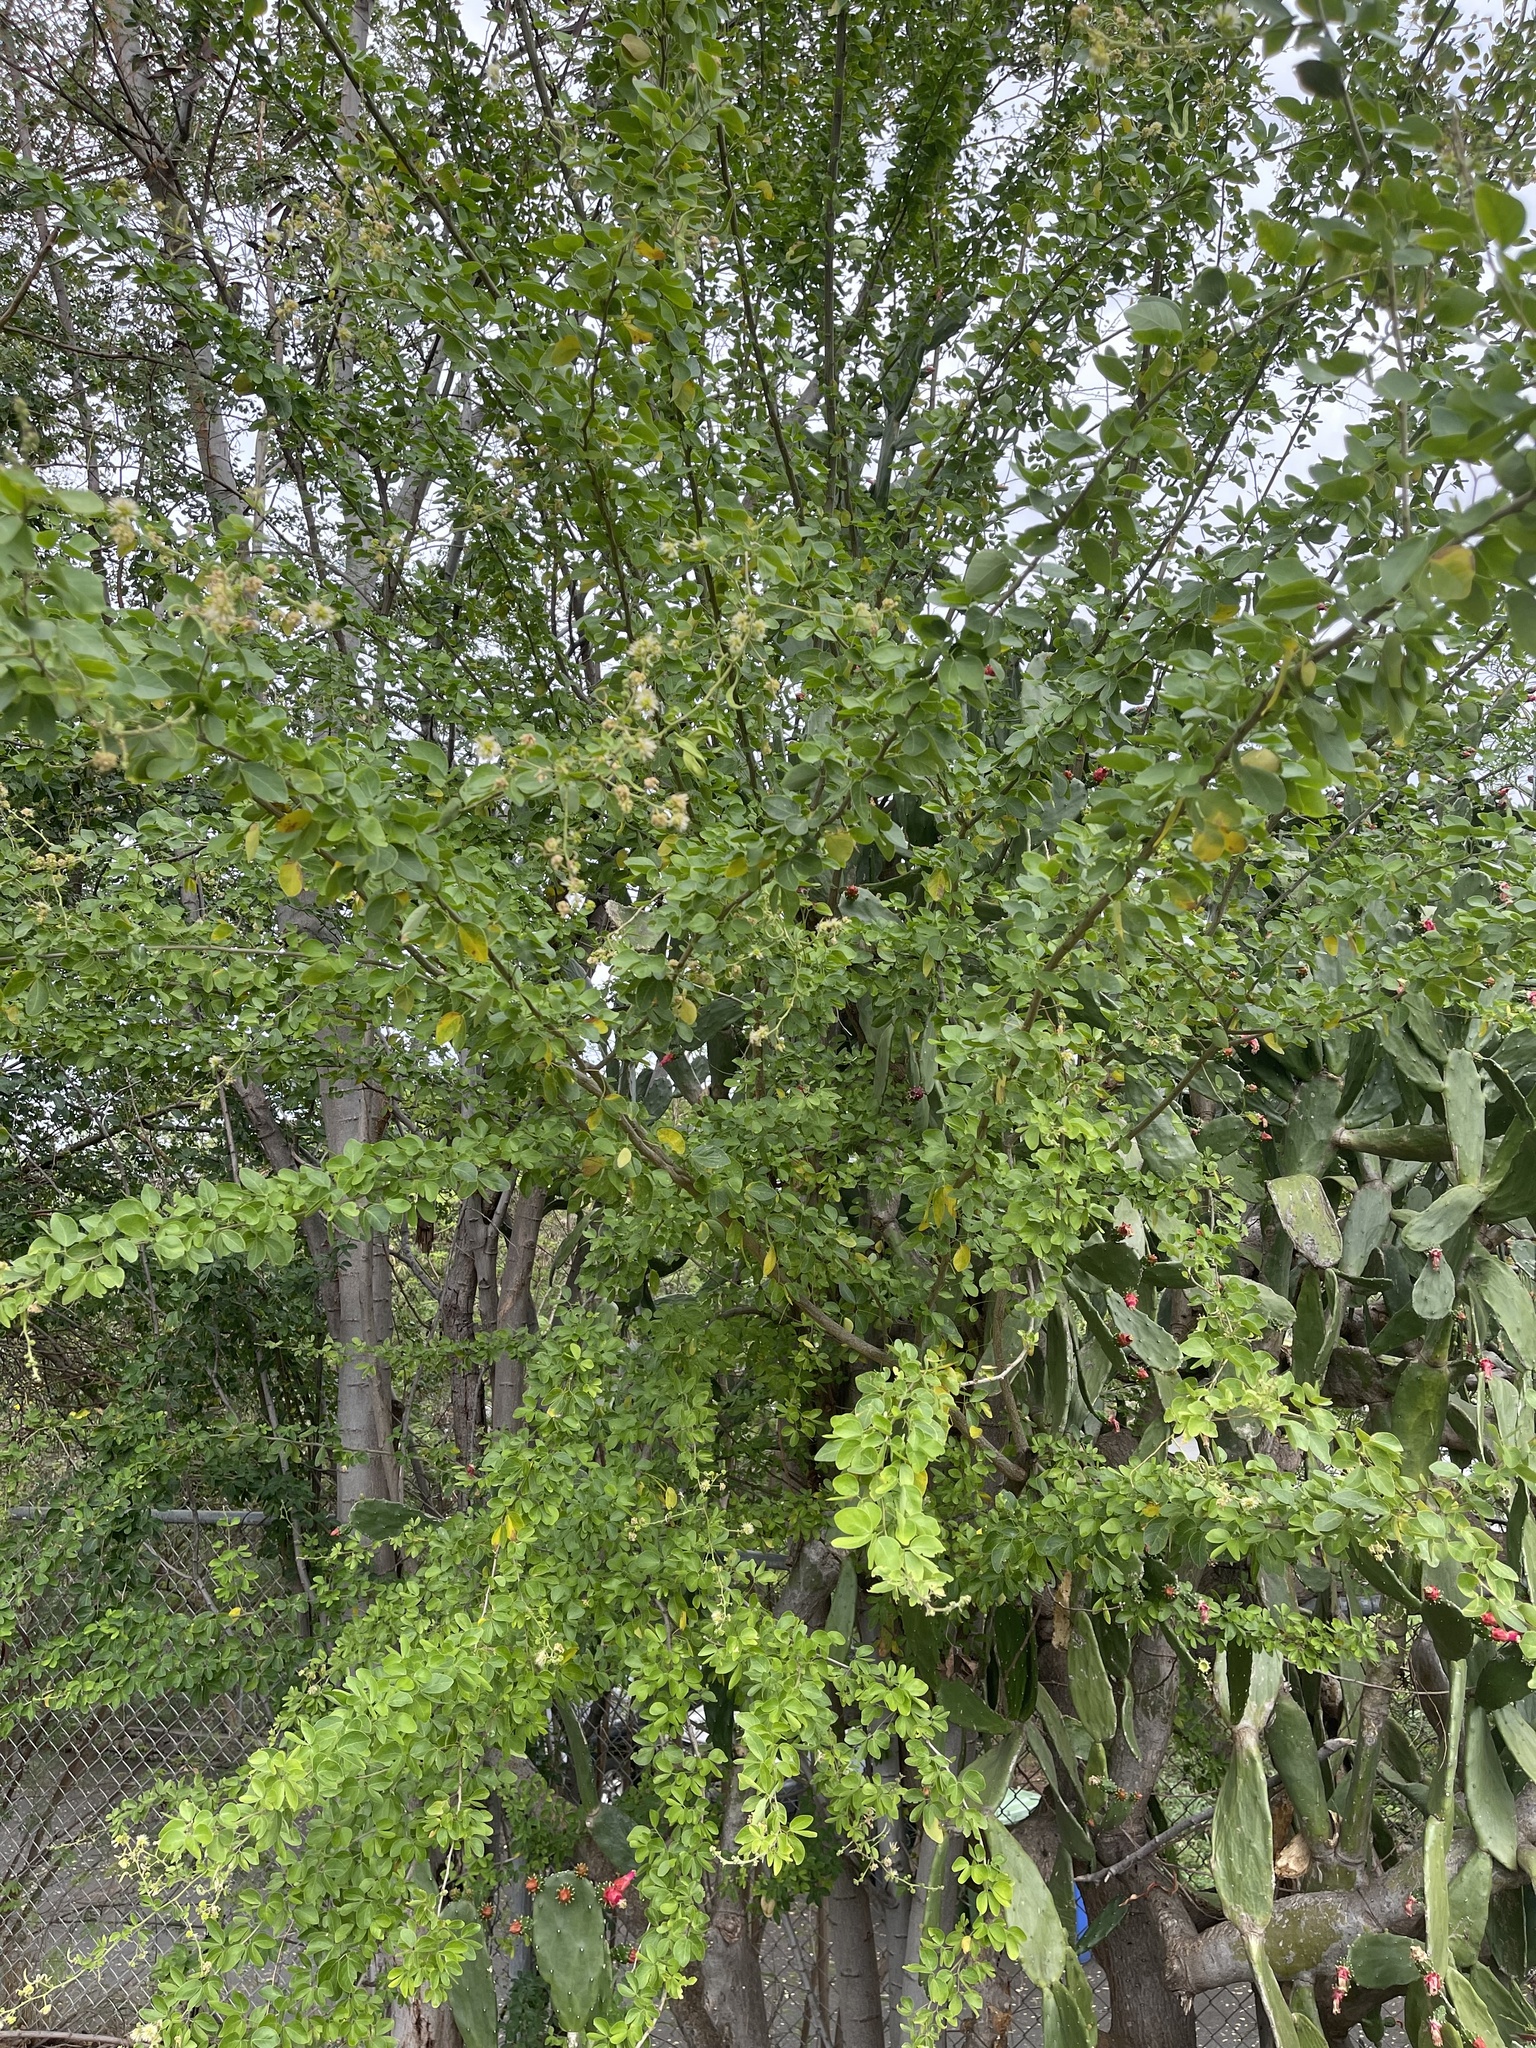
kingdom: Plantae
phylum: Tracheophyta
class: Magnoliopsida
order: Fabales
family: Fabaceae
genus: Pithecellobium
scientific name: Pithecellobium dulce
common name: Monkeypod
